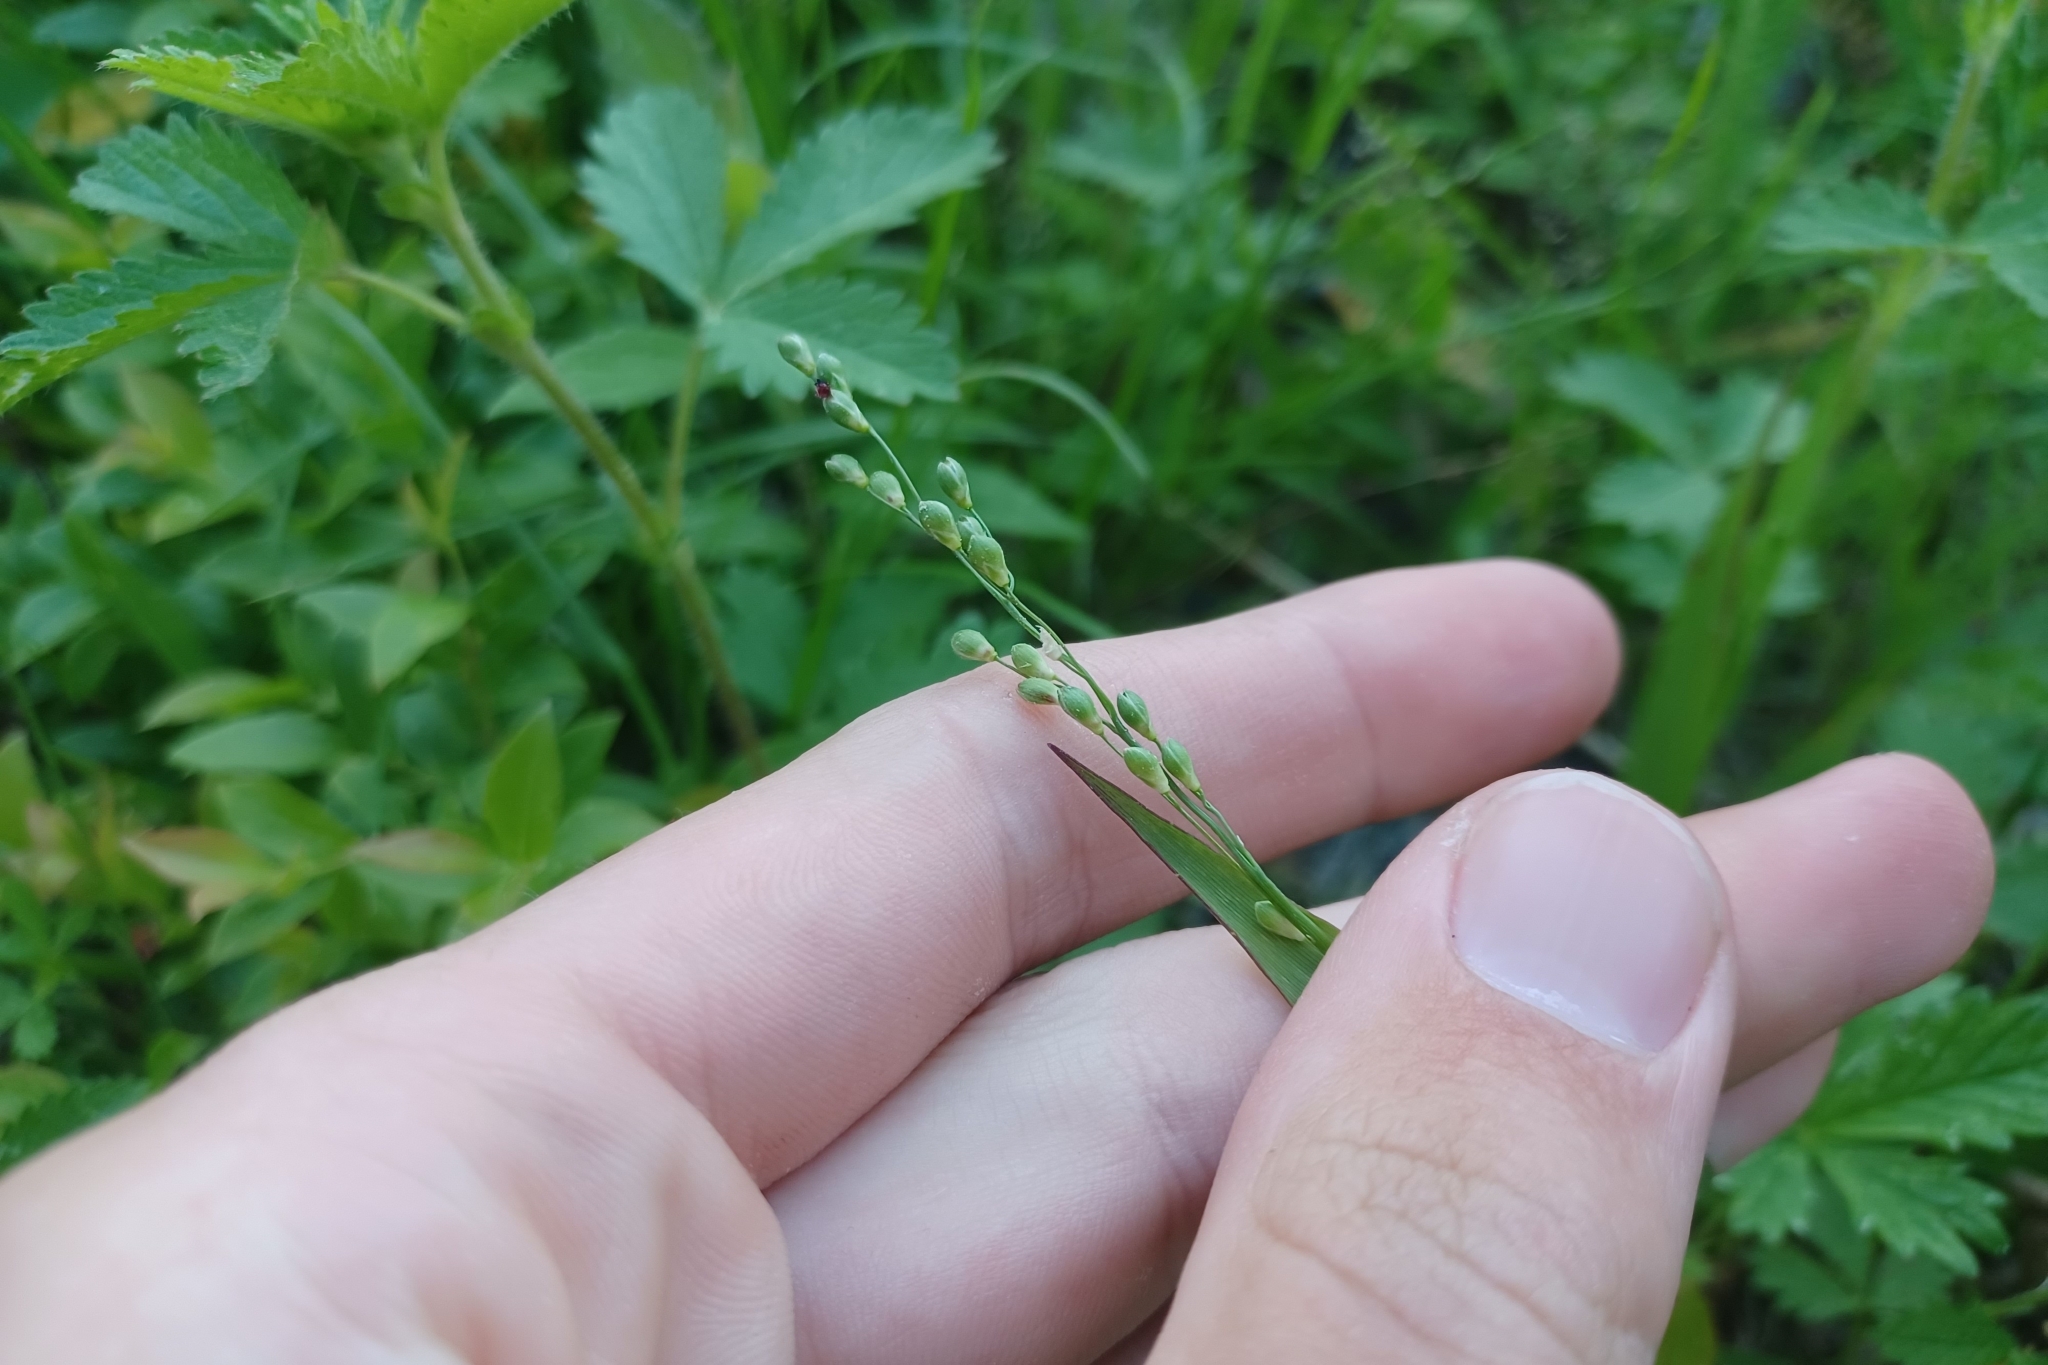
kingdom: Plantae
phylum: Tracheophyta
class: Liliopsida
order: Poales
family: Poaceae
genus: Dichanthelium
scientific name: Dichanthelium xanthophysum
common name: Pale panicgrass
